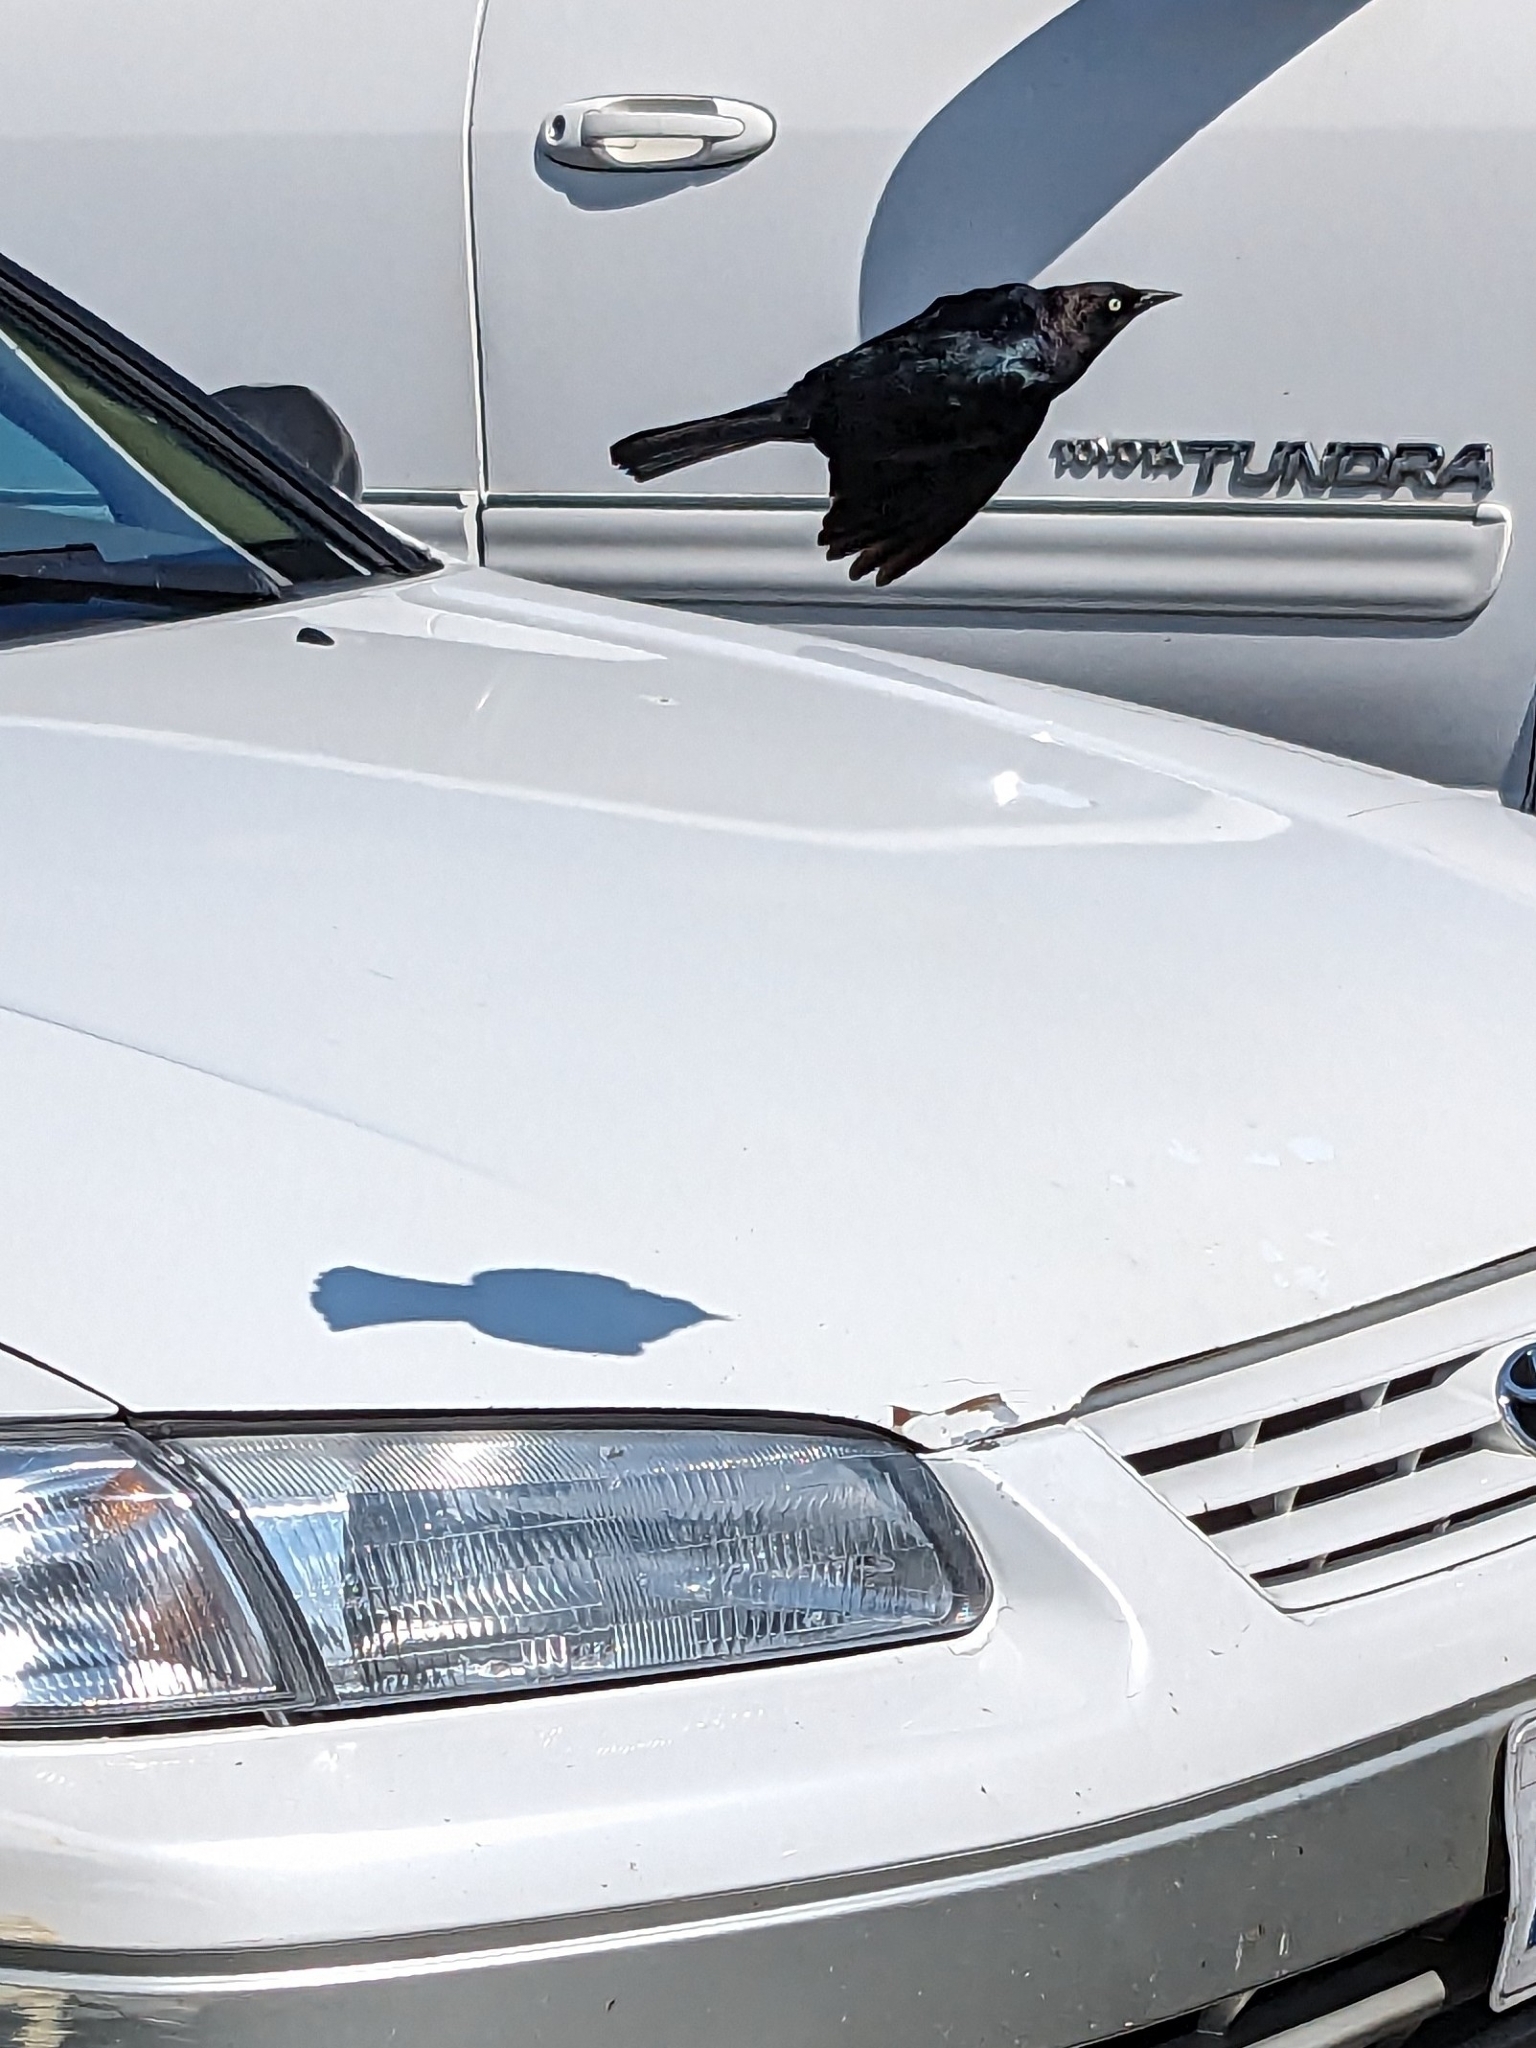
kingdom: Animalia
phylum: Chordata
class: Aves
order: Passeriformes
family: Icteridae
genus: Euphagus
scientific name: Euphagus cyanocephalus
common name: Brewer's blackbird
